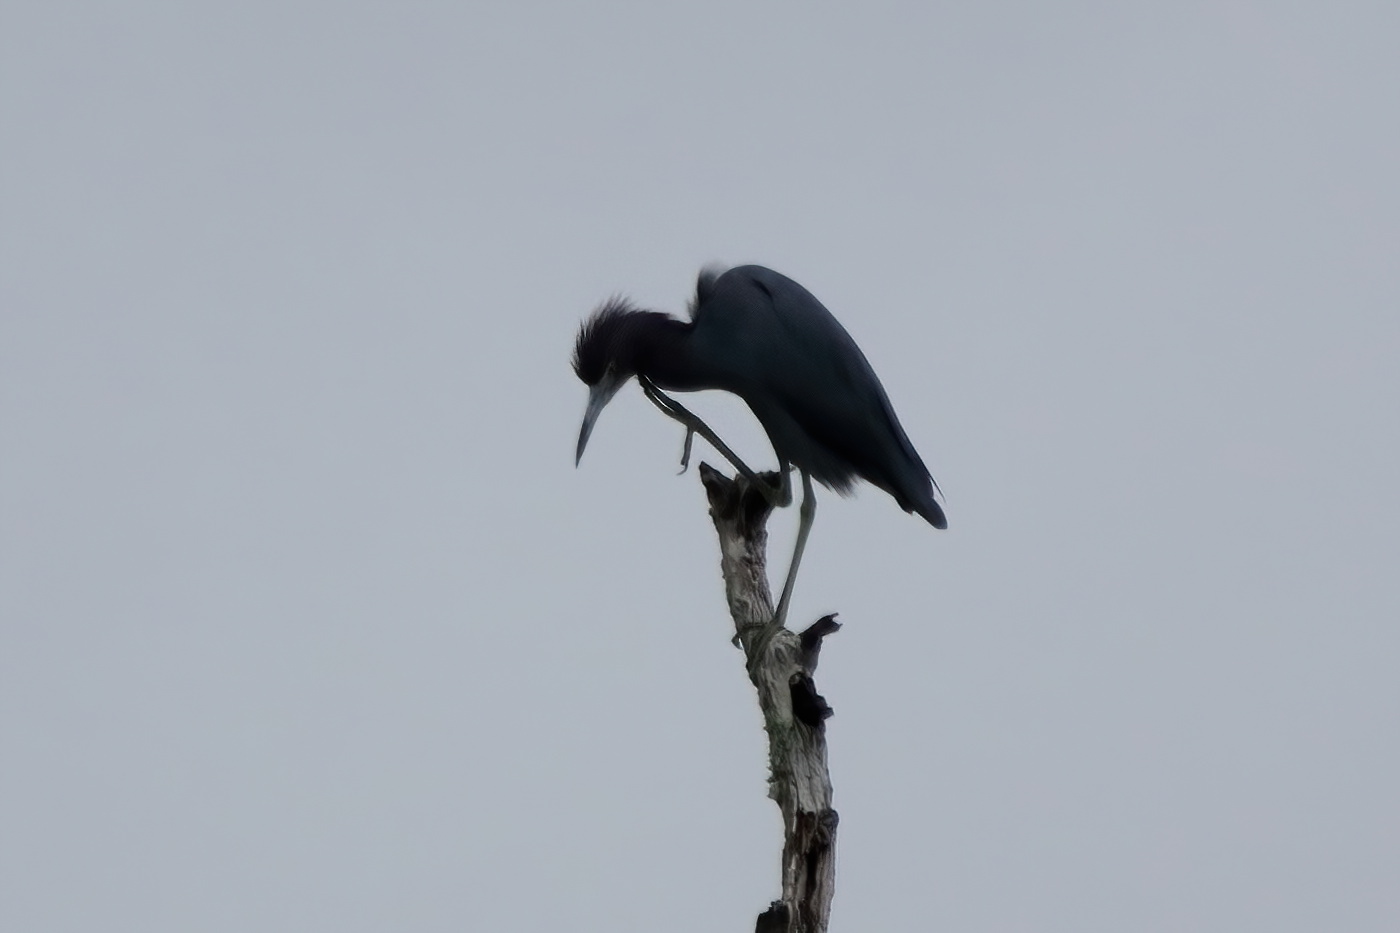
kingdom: Animalia
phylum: Chordata
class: Aves
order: Pelecaniformes
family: Ardeidae
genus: Egretta
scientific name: Egretta caerulea
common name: Little blue heron
